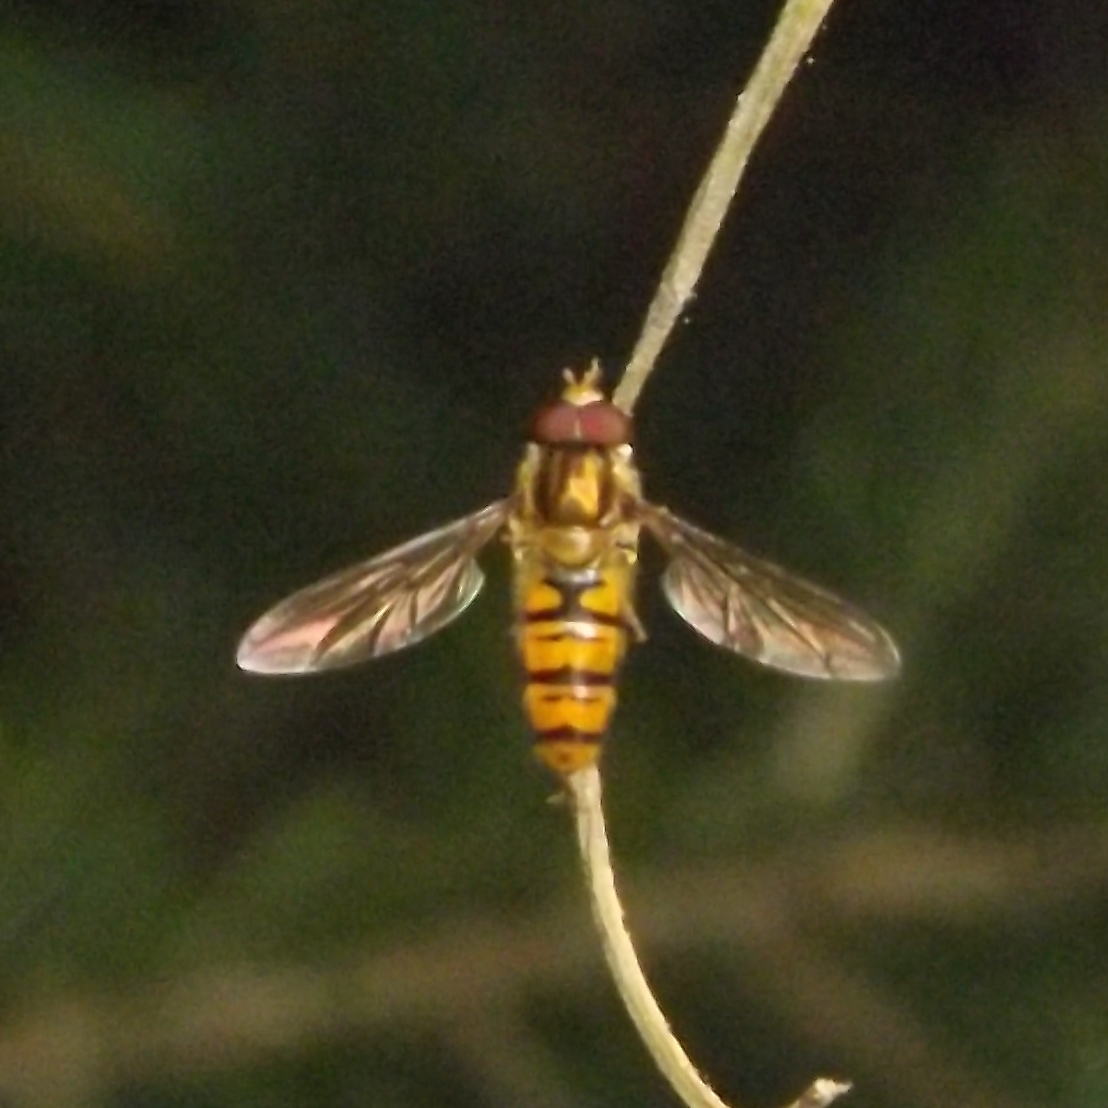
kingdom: Animalia
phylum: Arthropoda
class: Insecta
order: Diptera
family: Syrphidae
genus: Episyrphus
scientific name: Episyrphus balteatus
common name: Marmalade hoverfly
